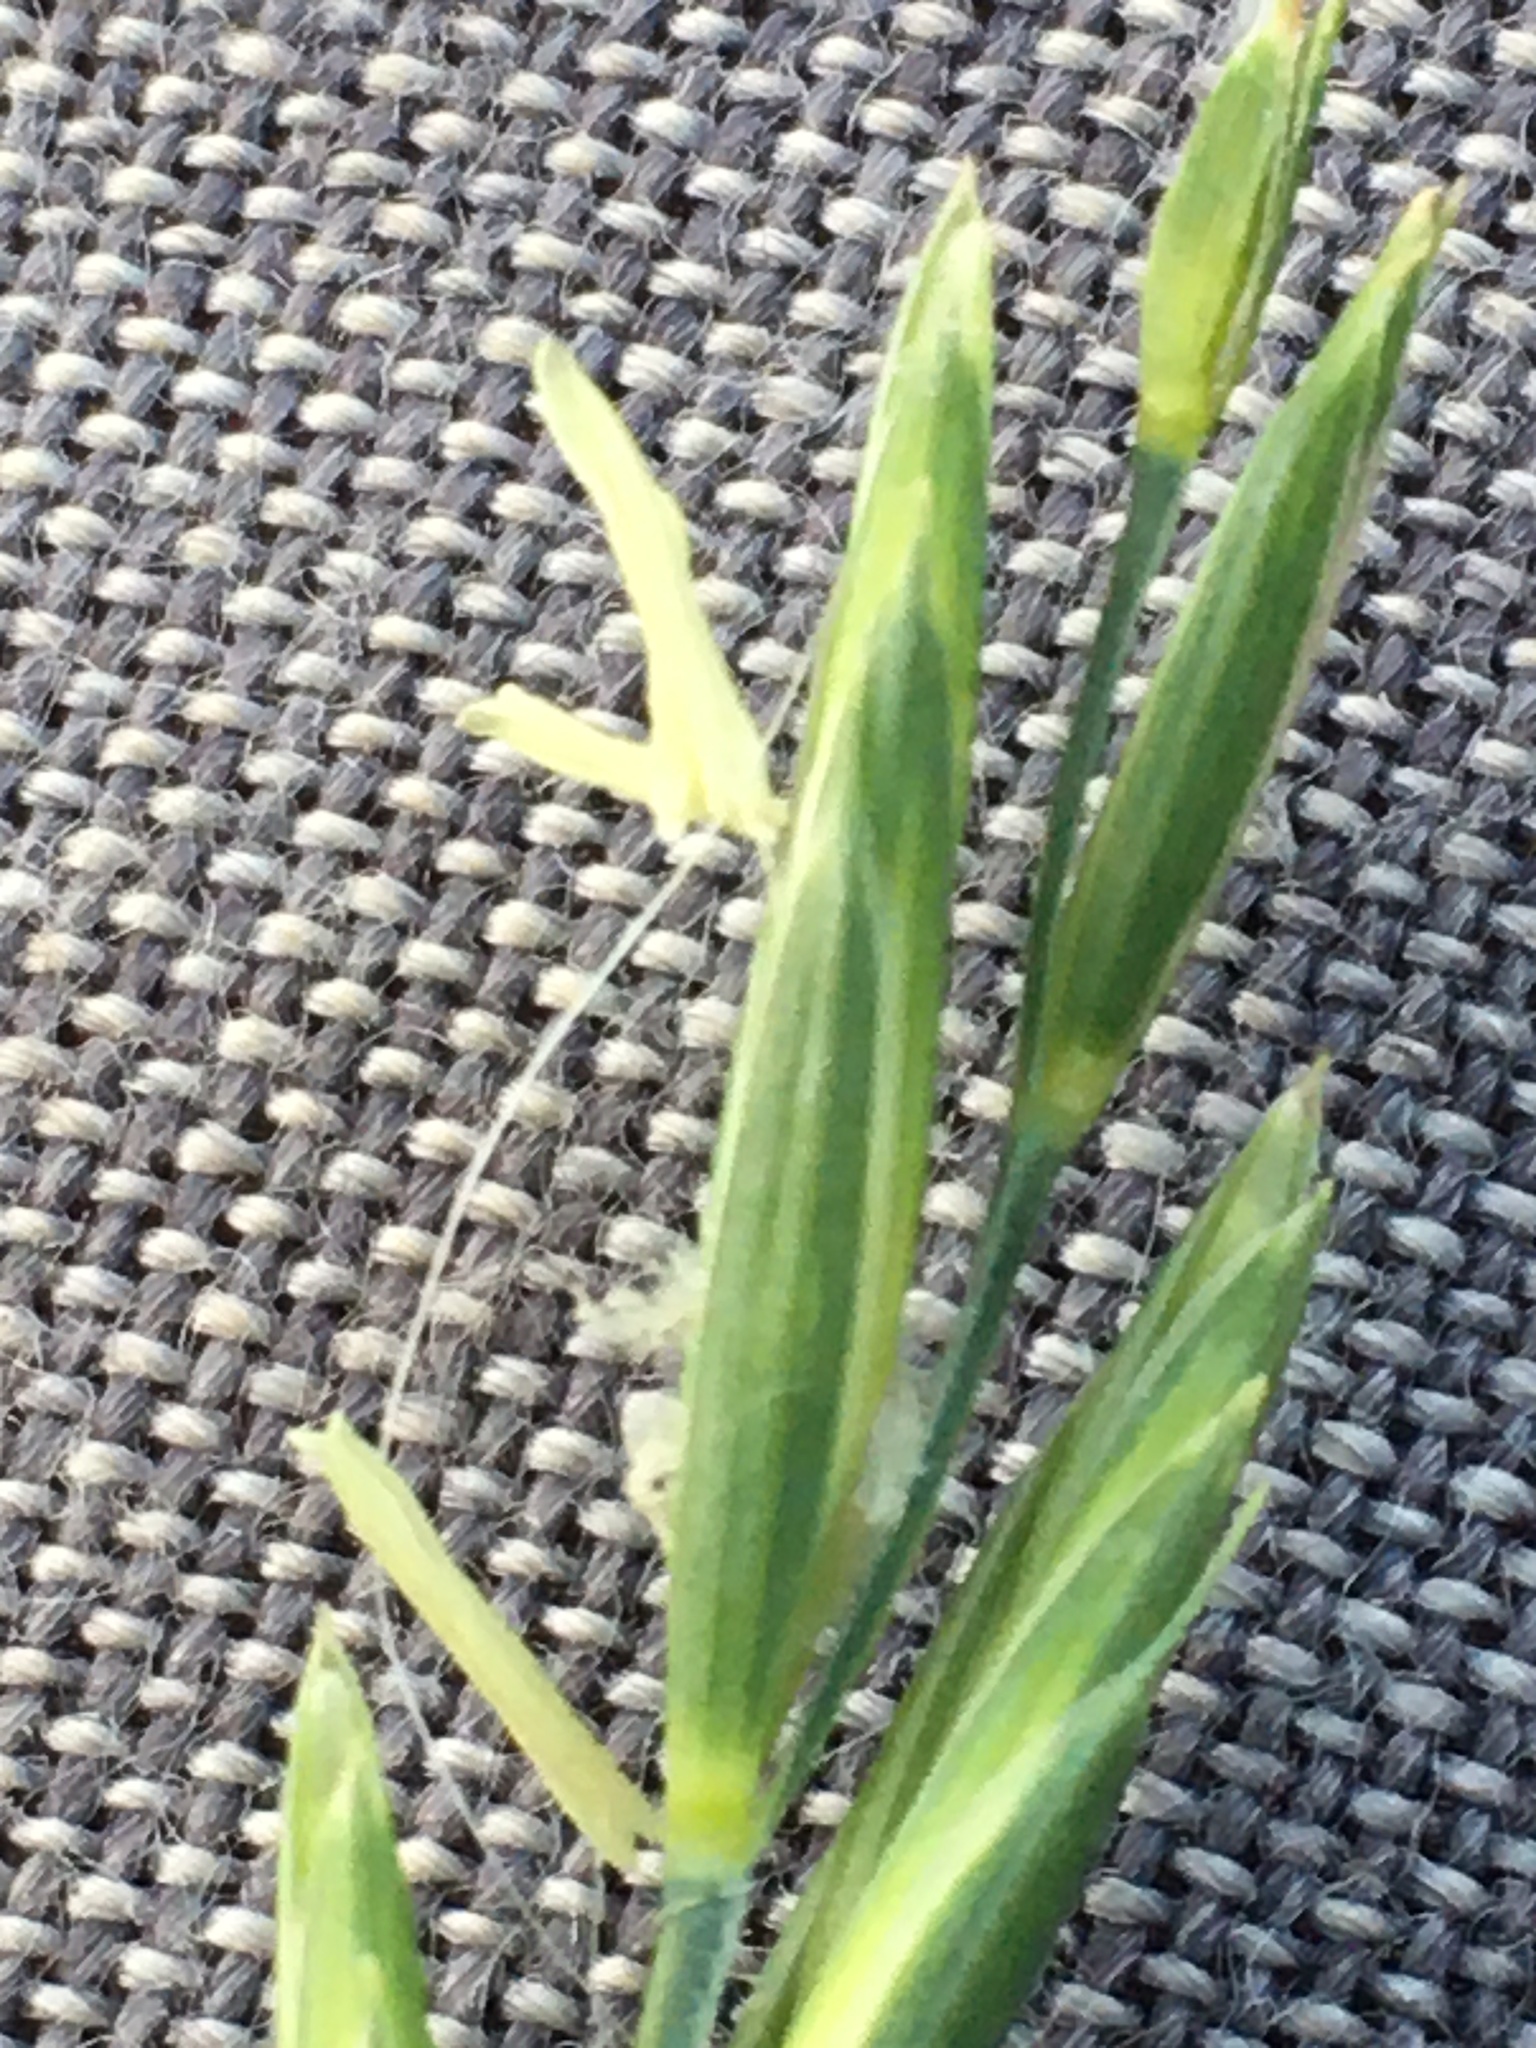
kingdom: Plantae
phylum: Tracheophyta
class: Liliopsida
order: Poales
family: Poaceae
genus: Elymus
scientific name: Elymus repens
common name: Quackgrass
